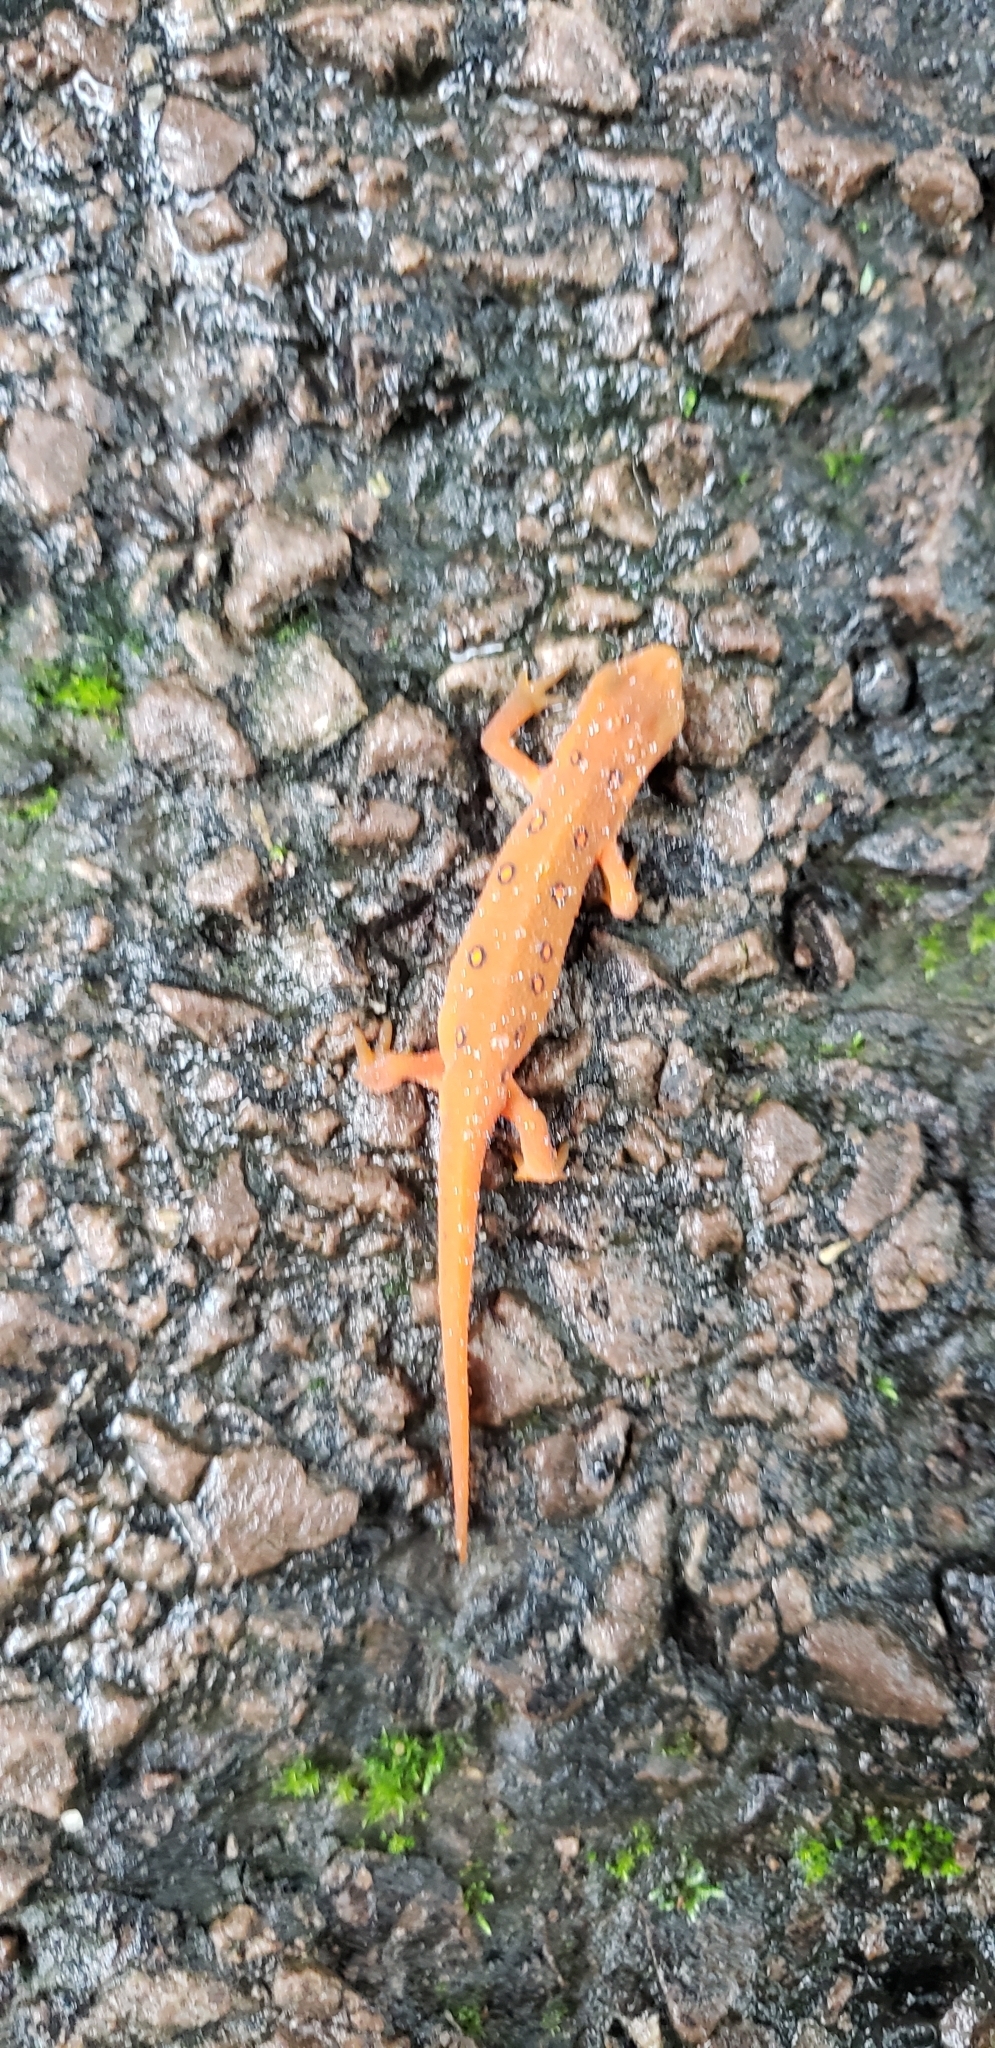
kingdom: Animalia
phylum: Chordata
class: Amphibia
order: Caudata
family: Salamandridae
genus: Notophthalmus
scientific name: Notophthalmus viridescens
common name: Eastern newt
